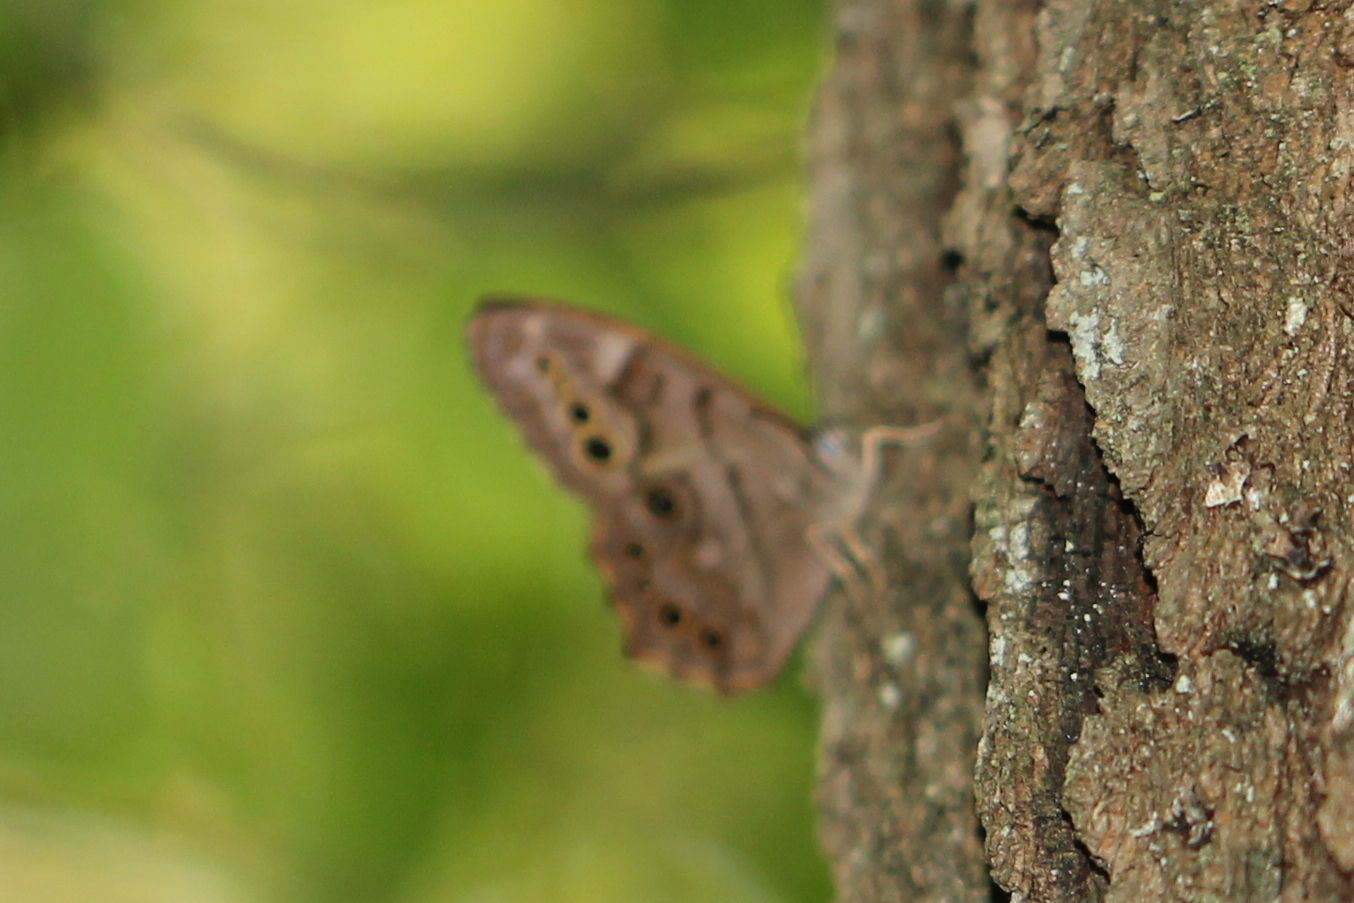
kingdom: Animalia
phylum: Arthropoda
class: Insecta
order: Lepidoptera
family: Nymphalidae
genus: Lethe
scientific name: Lethe anthedon
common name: Northern pearly-eye
